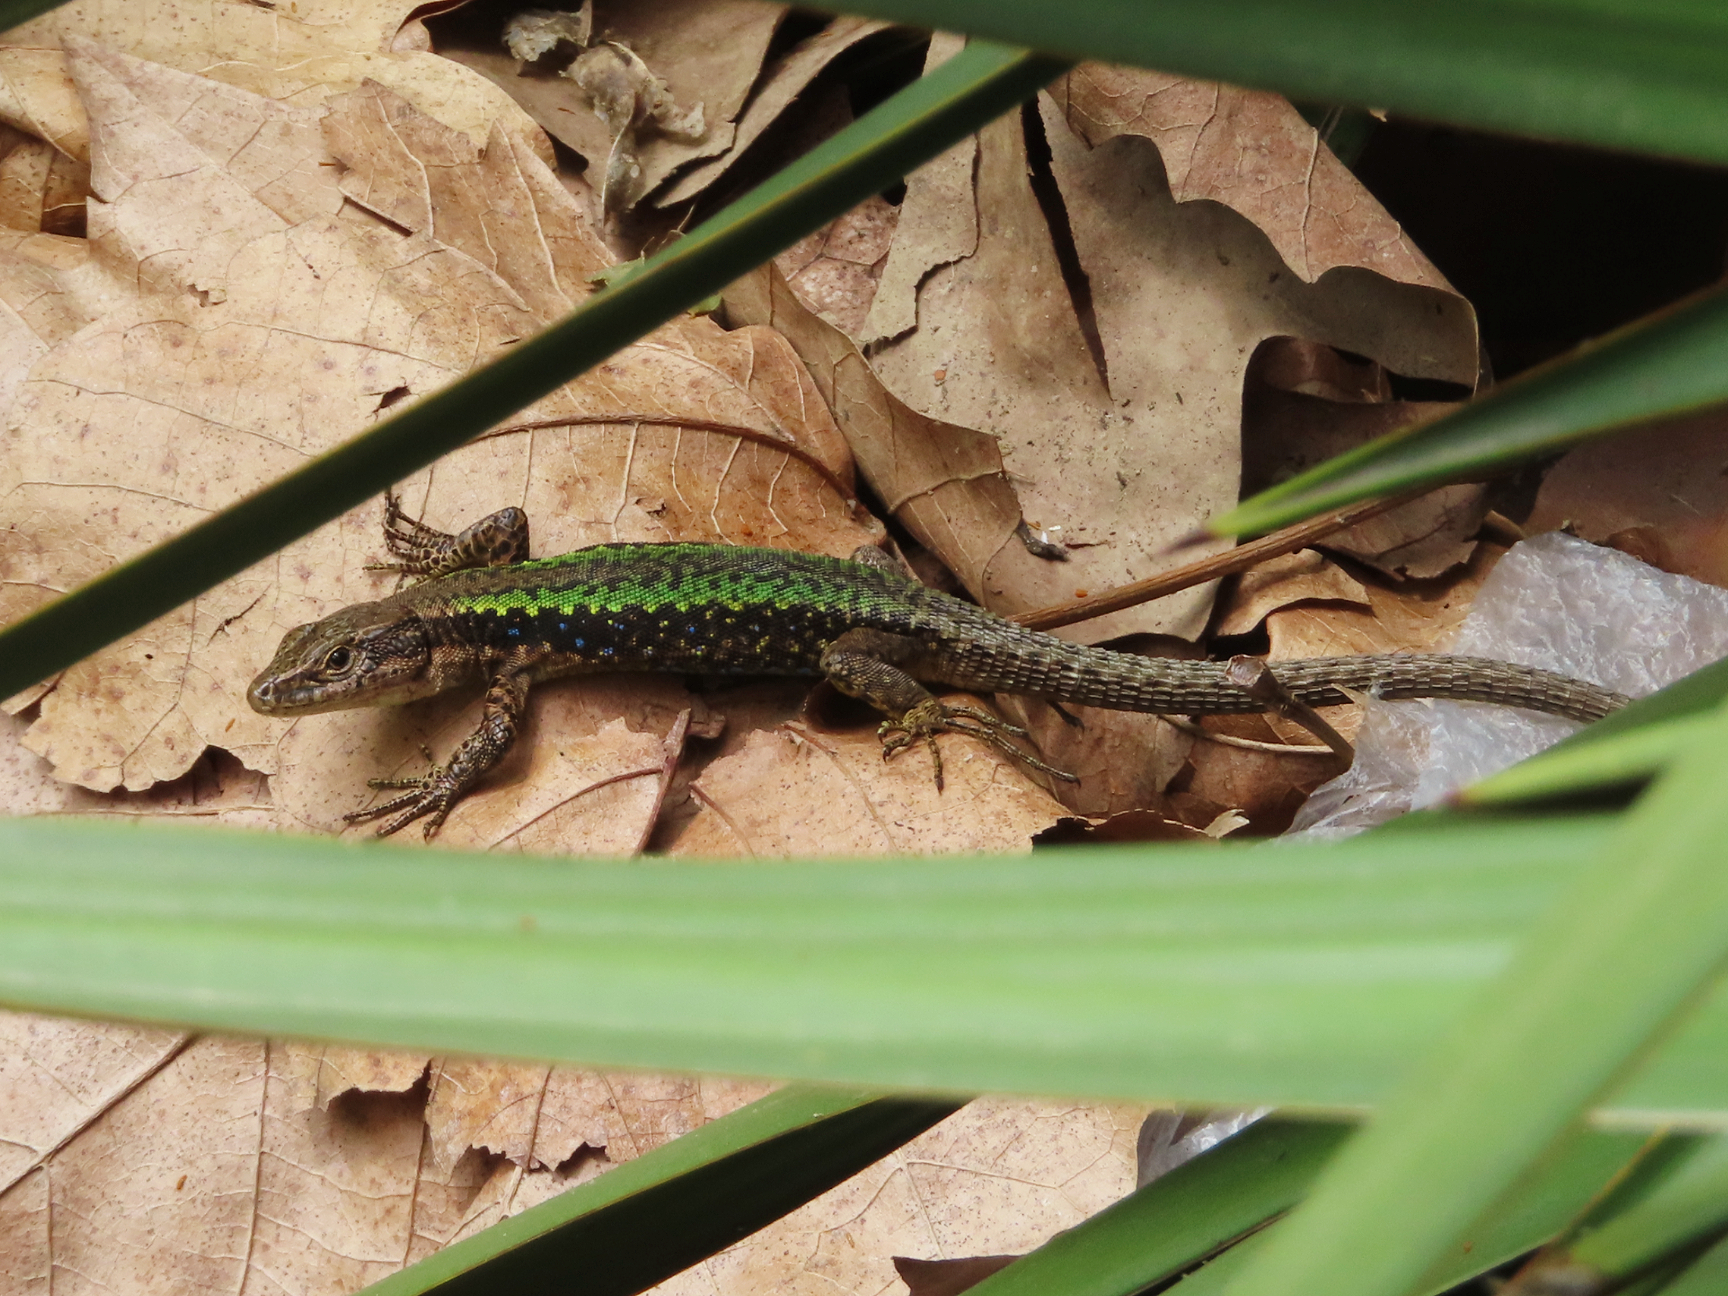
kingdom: Animalia
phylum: Chordata
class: Squamata
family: Lacertidae
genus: Darevskia
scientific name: Darevskia mixta
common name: Ajarian lizard
